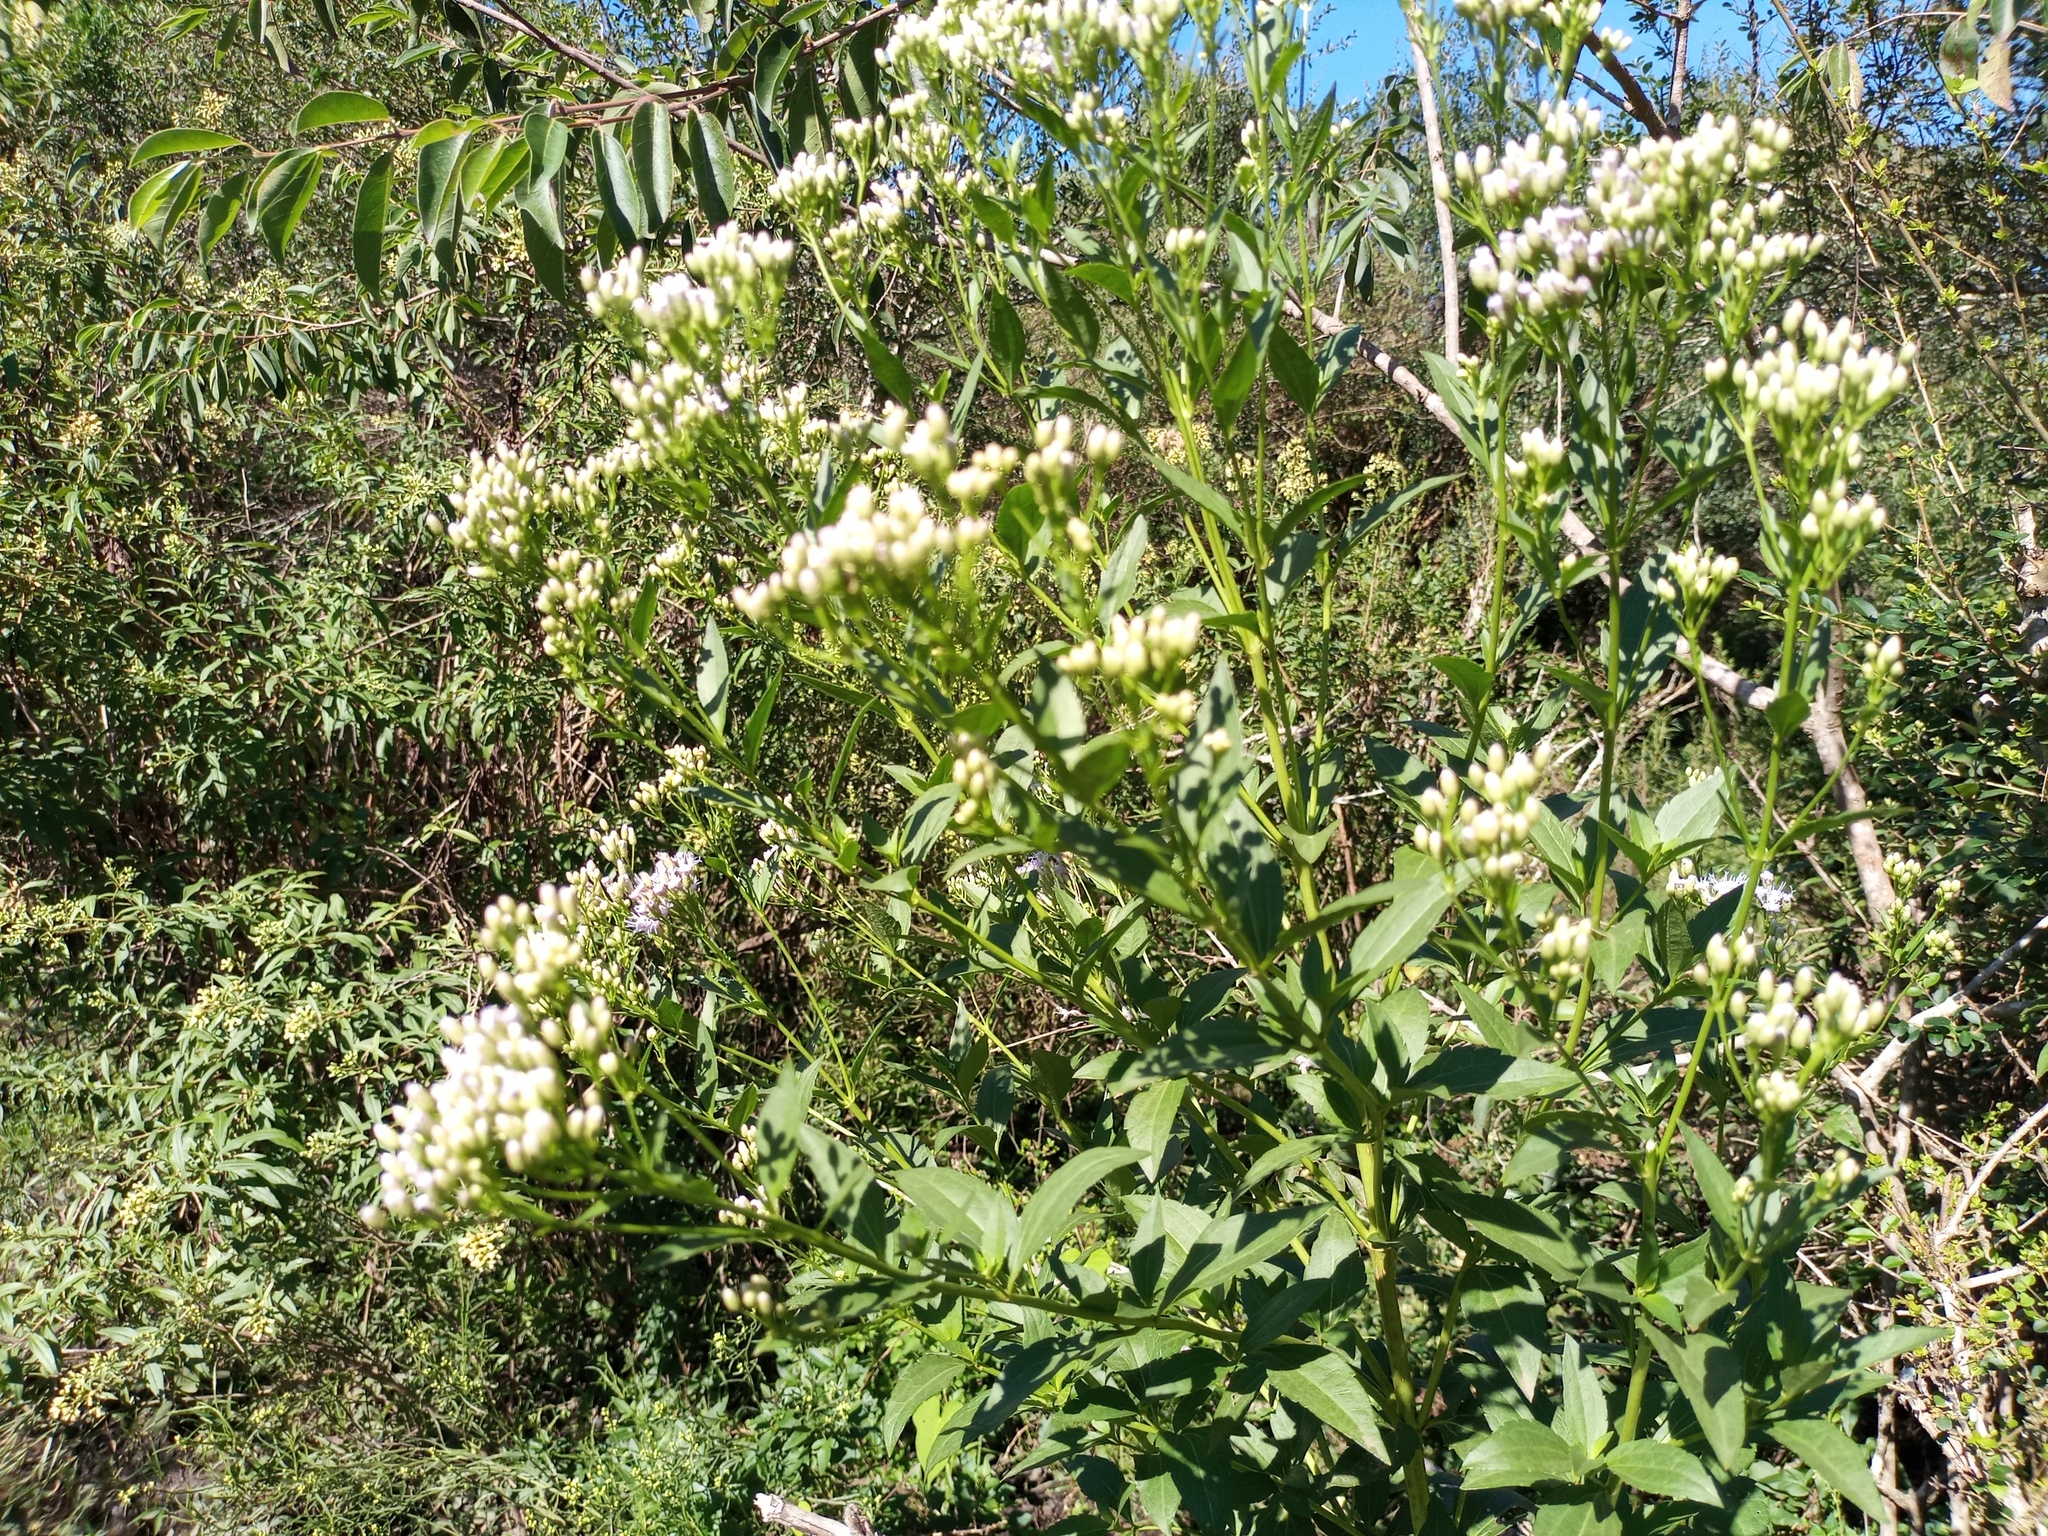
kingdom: Plantae
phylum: Tracheophyta
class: Magnoliopsida
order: Asterales
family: Asteraceae
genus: Chromolaena
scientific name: Chromolaena laevigata
